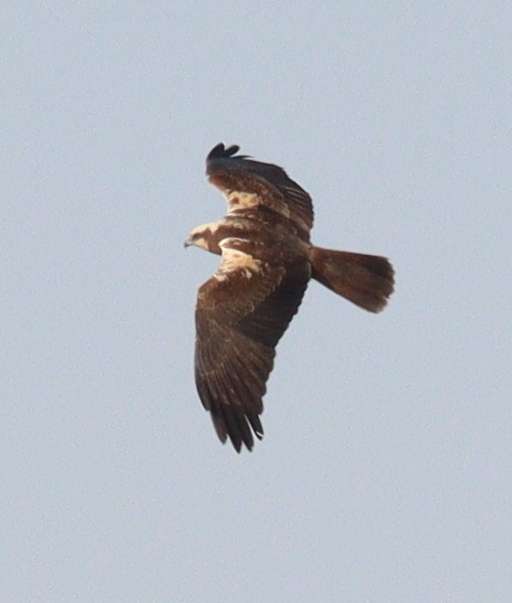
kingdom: Animalia
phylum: Chordata
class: Aves
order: Accipitriformes
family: Accipitridae
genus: Circus
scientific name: Circus aeruginosus
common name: Western marsh harrier
